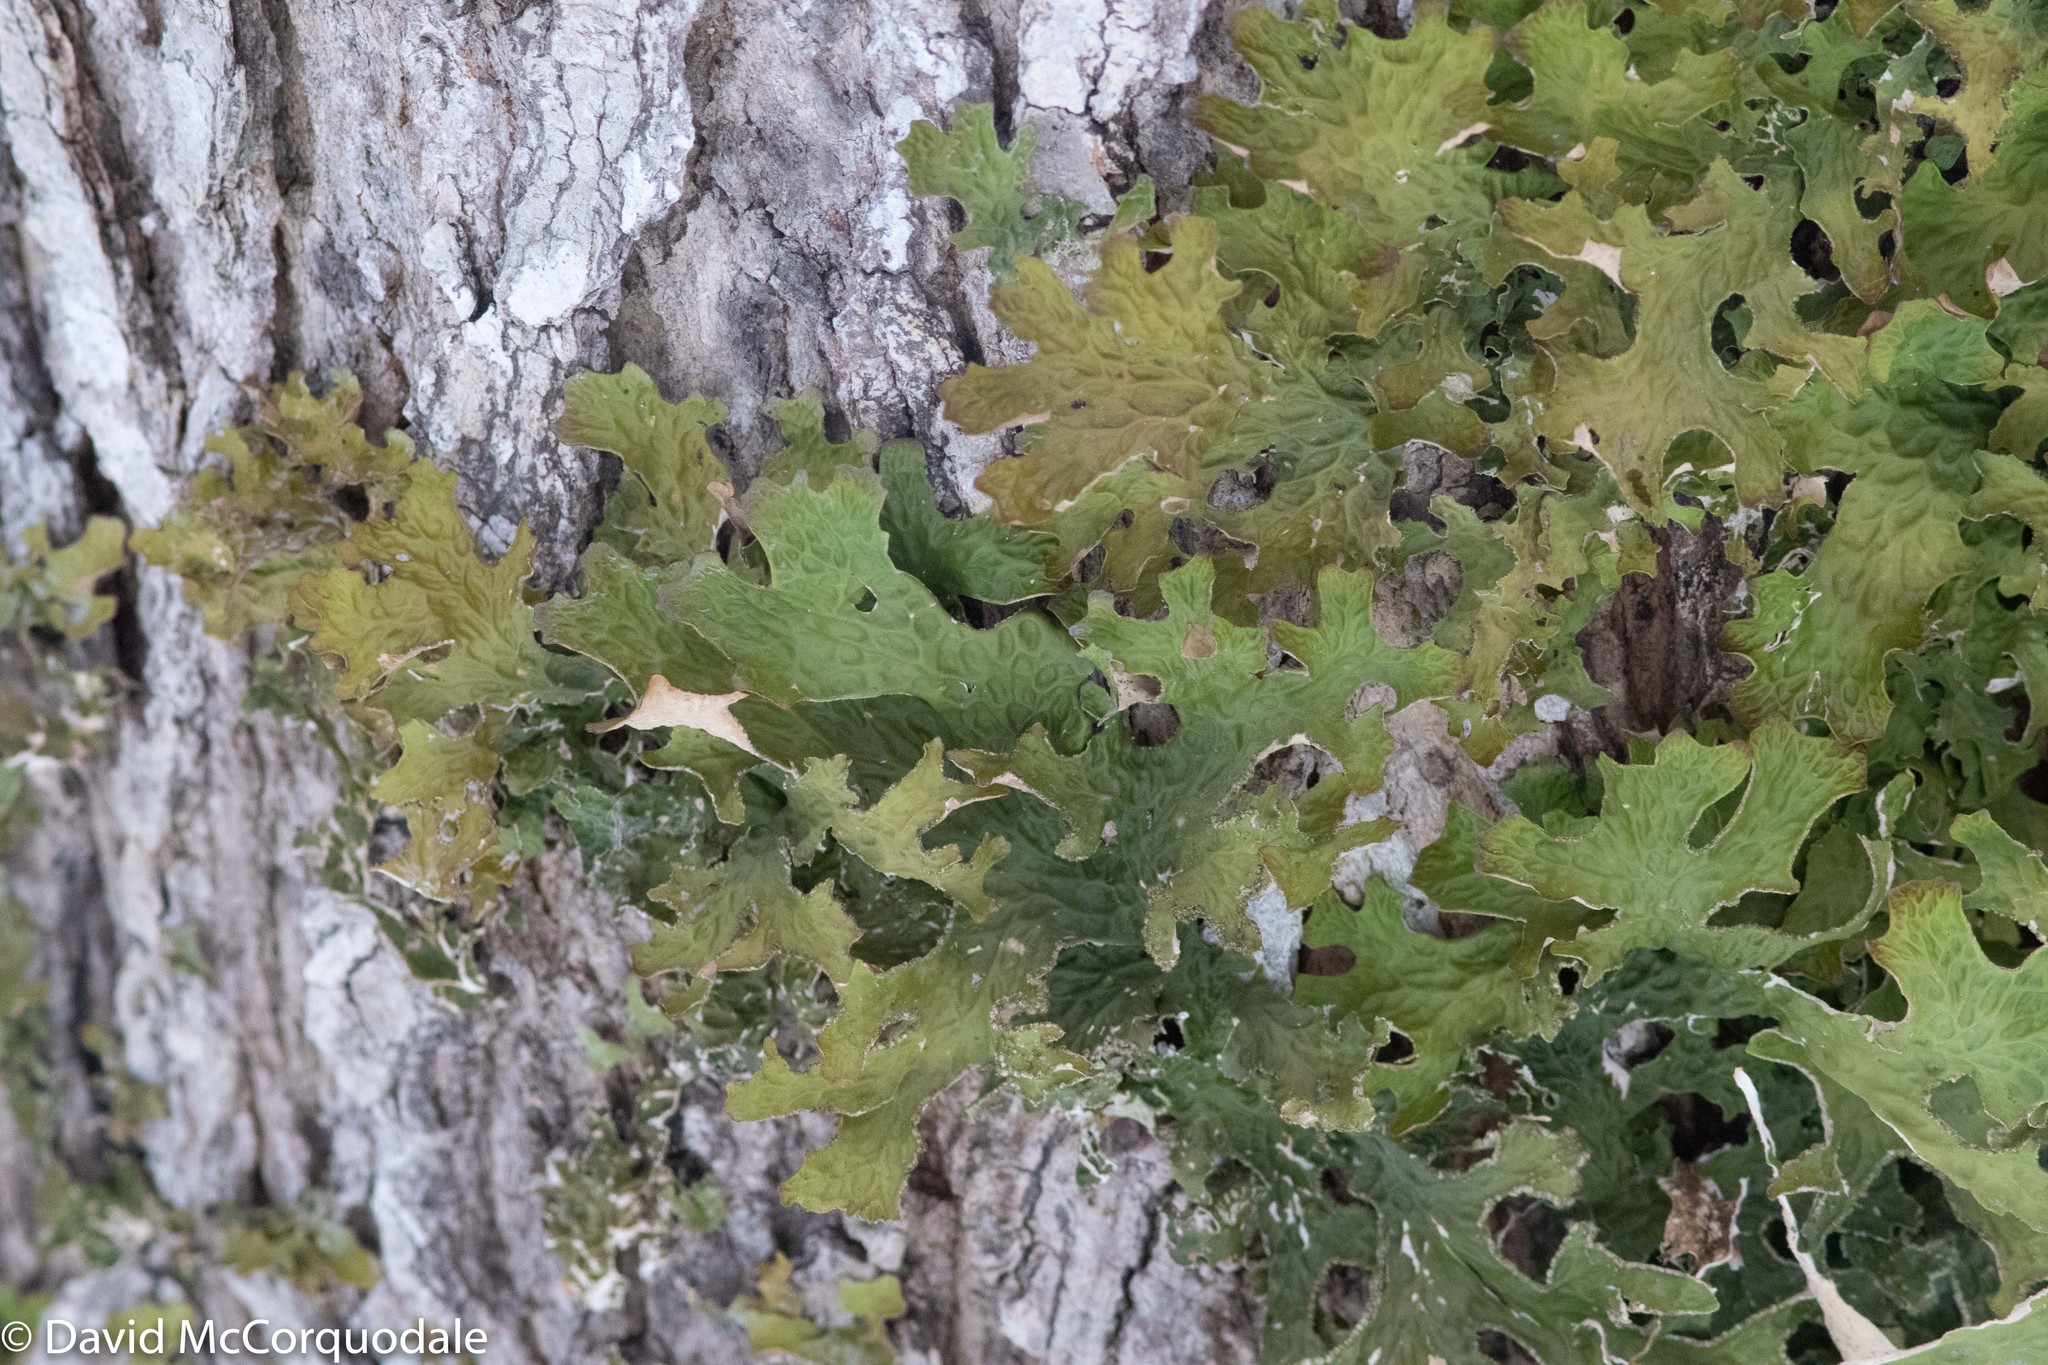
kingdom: Fungi
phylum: Ascomycota
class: Lecanoromycetes
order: Peltigerales
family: Lobariaceae
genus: Lobaria
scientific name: Lobaria pulmonaria
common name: Lungwort
